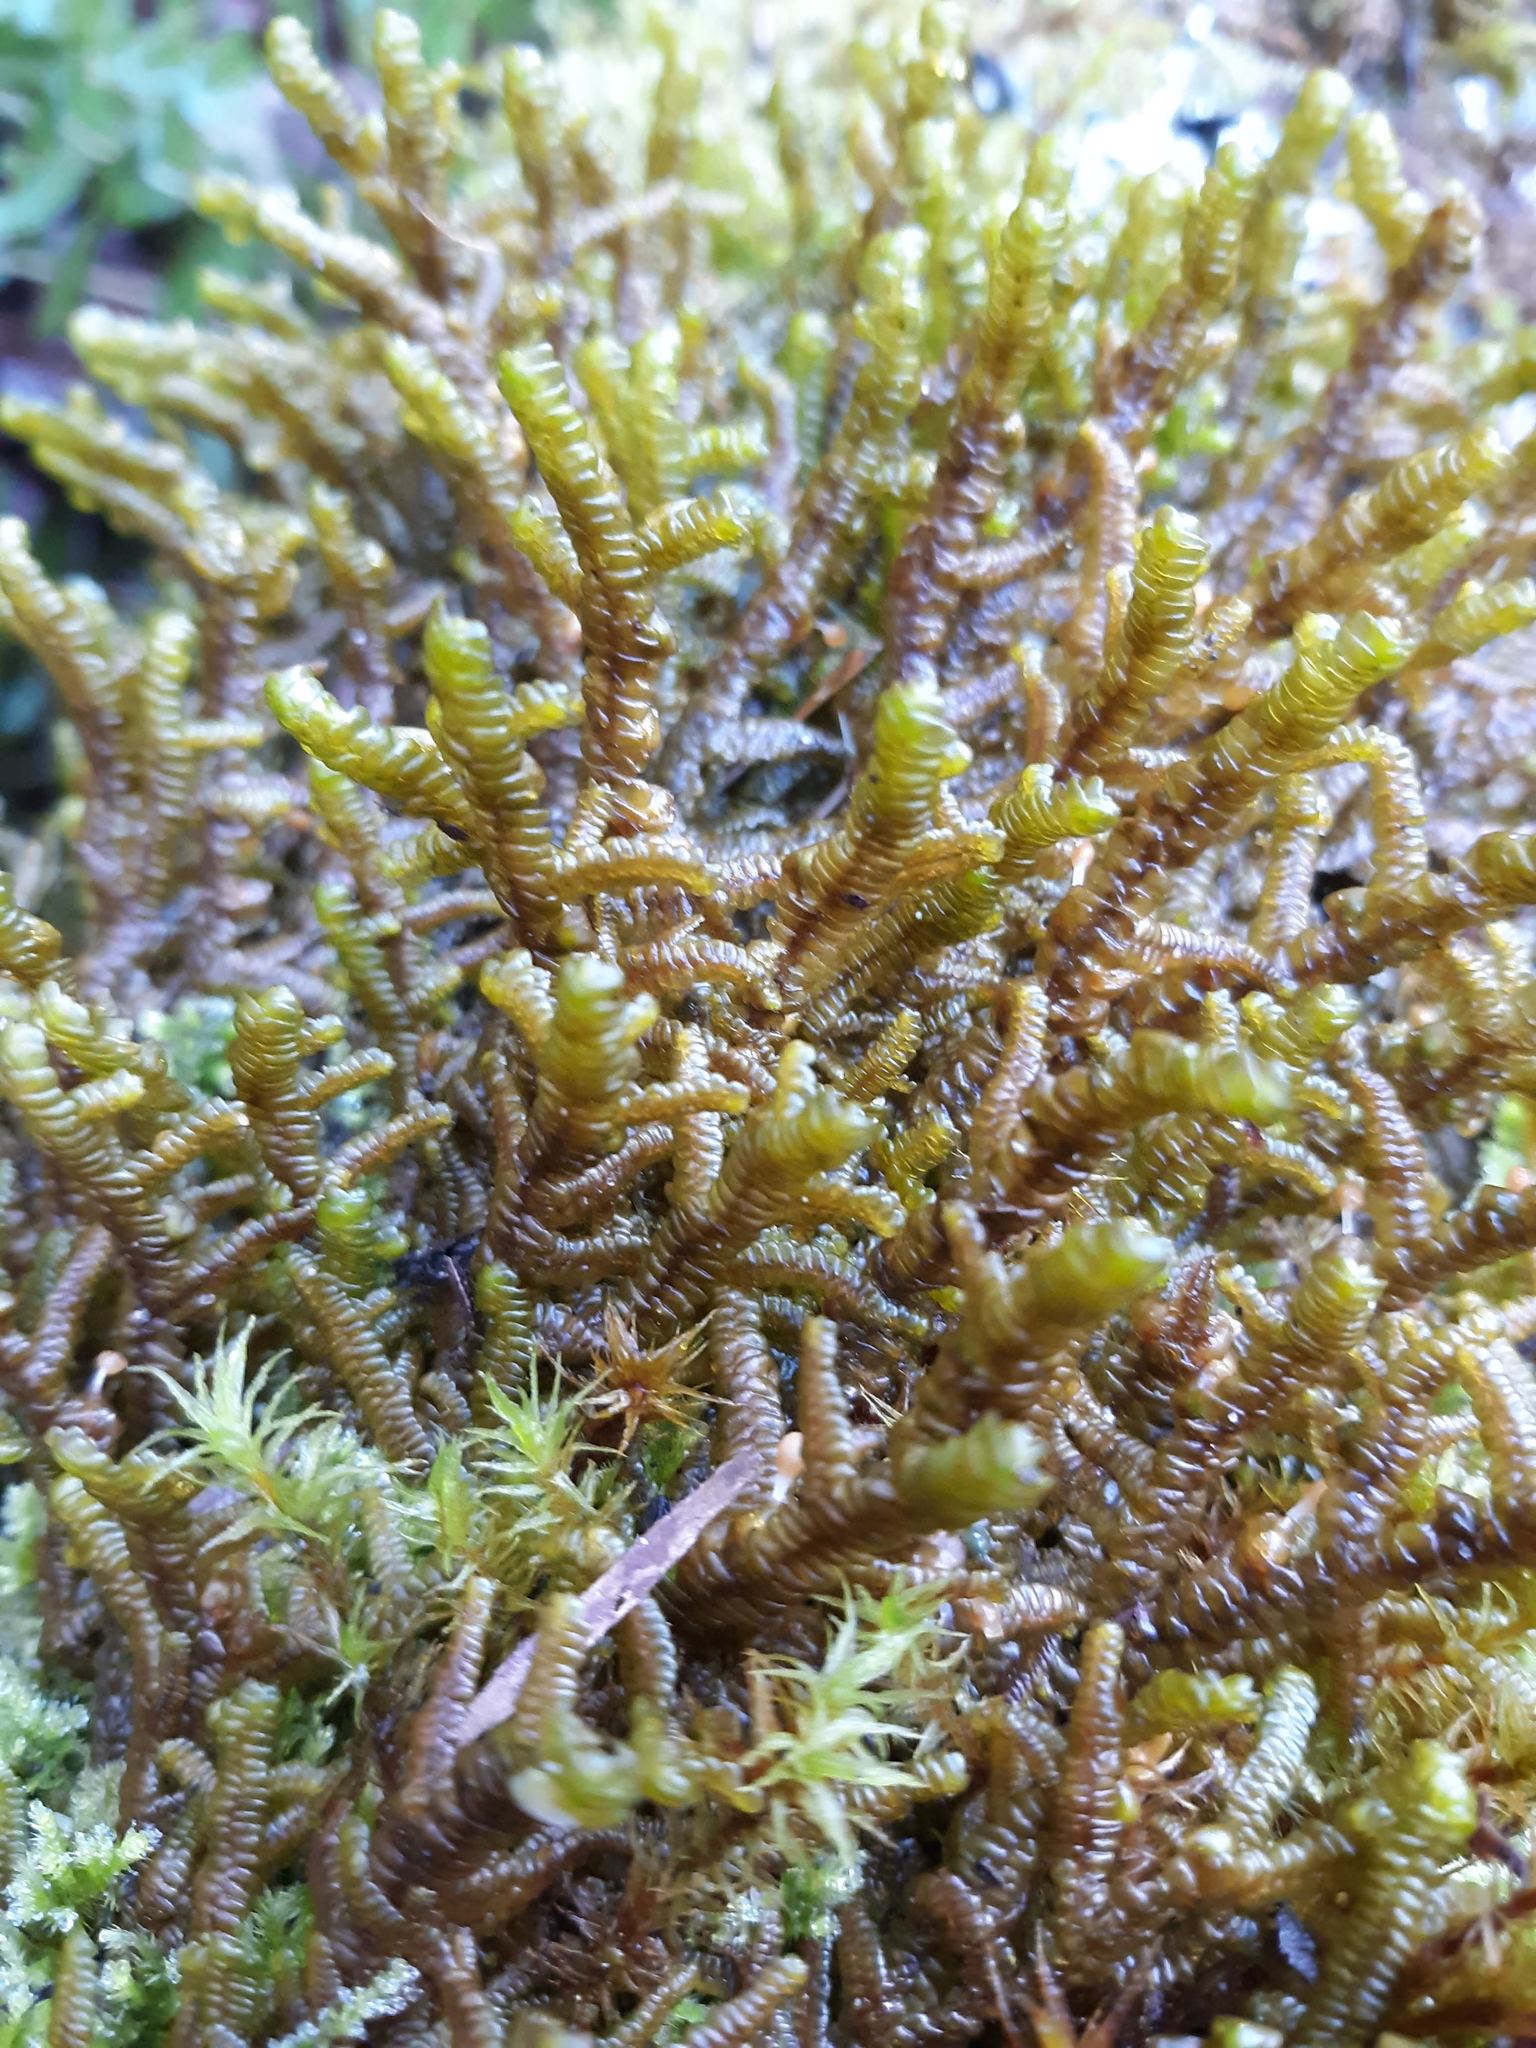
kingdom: Plantae
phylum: Marchantiophyta
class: Jungermanniopsida
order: Porellales
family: Porellaceae
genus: Porella
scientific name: Porella navicularis
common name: Tree ruffle liverwort
